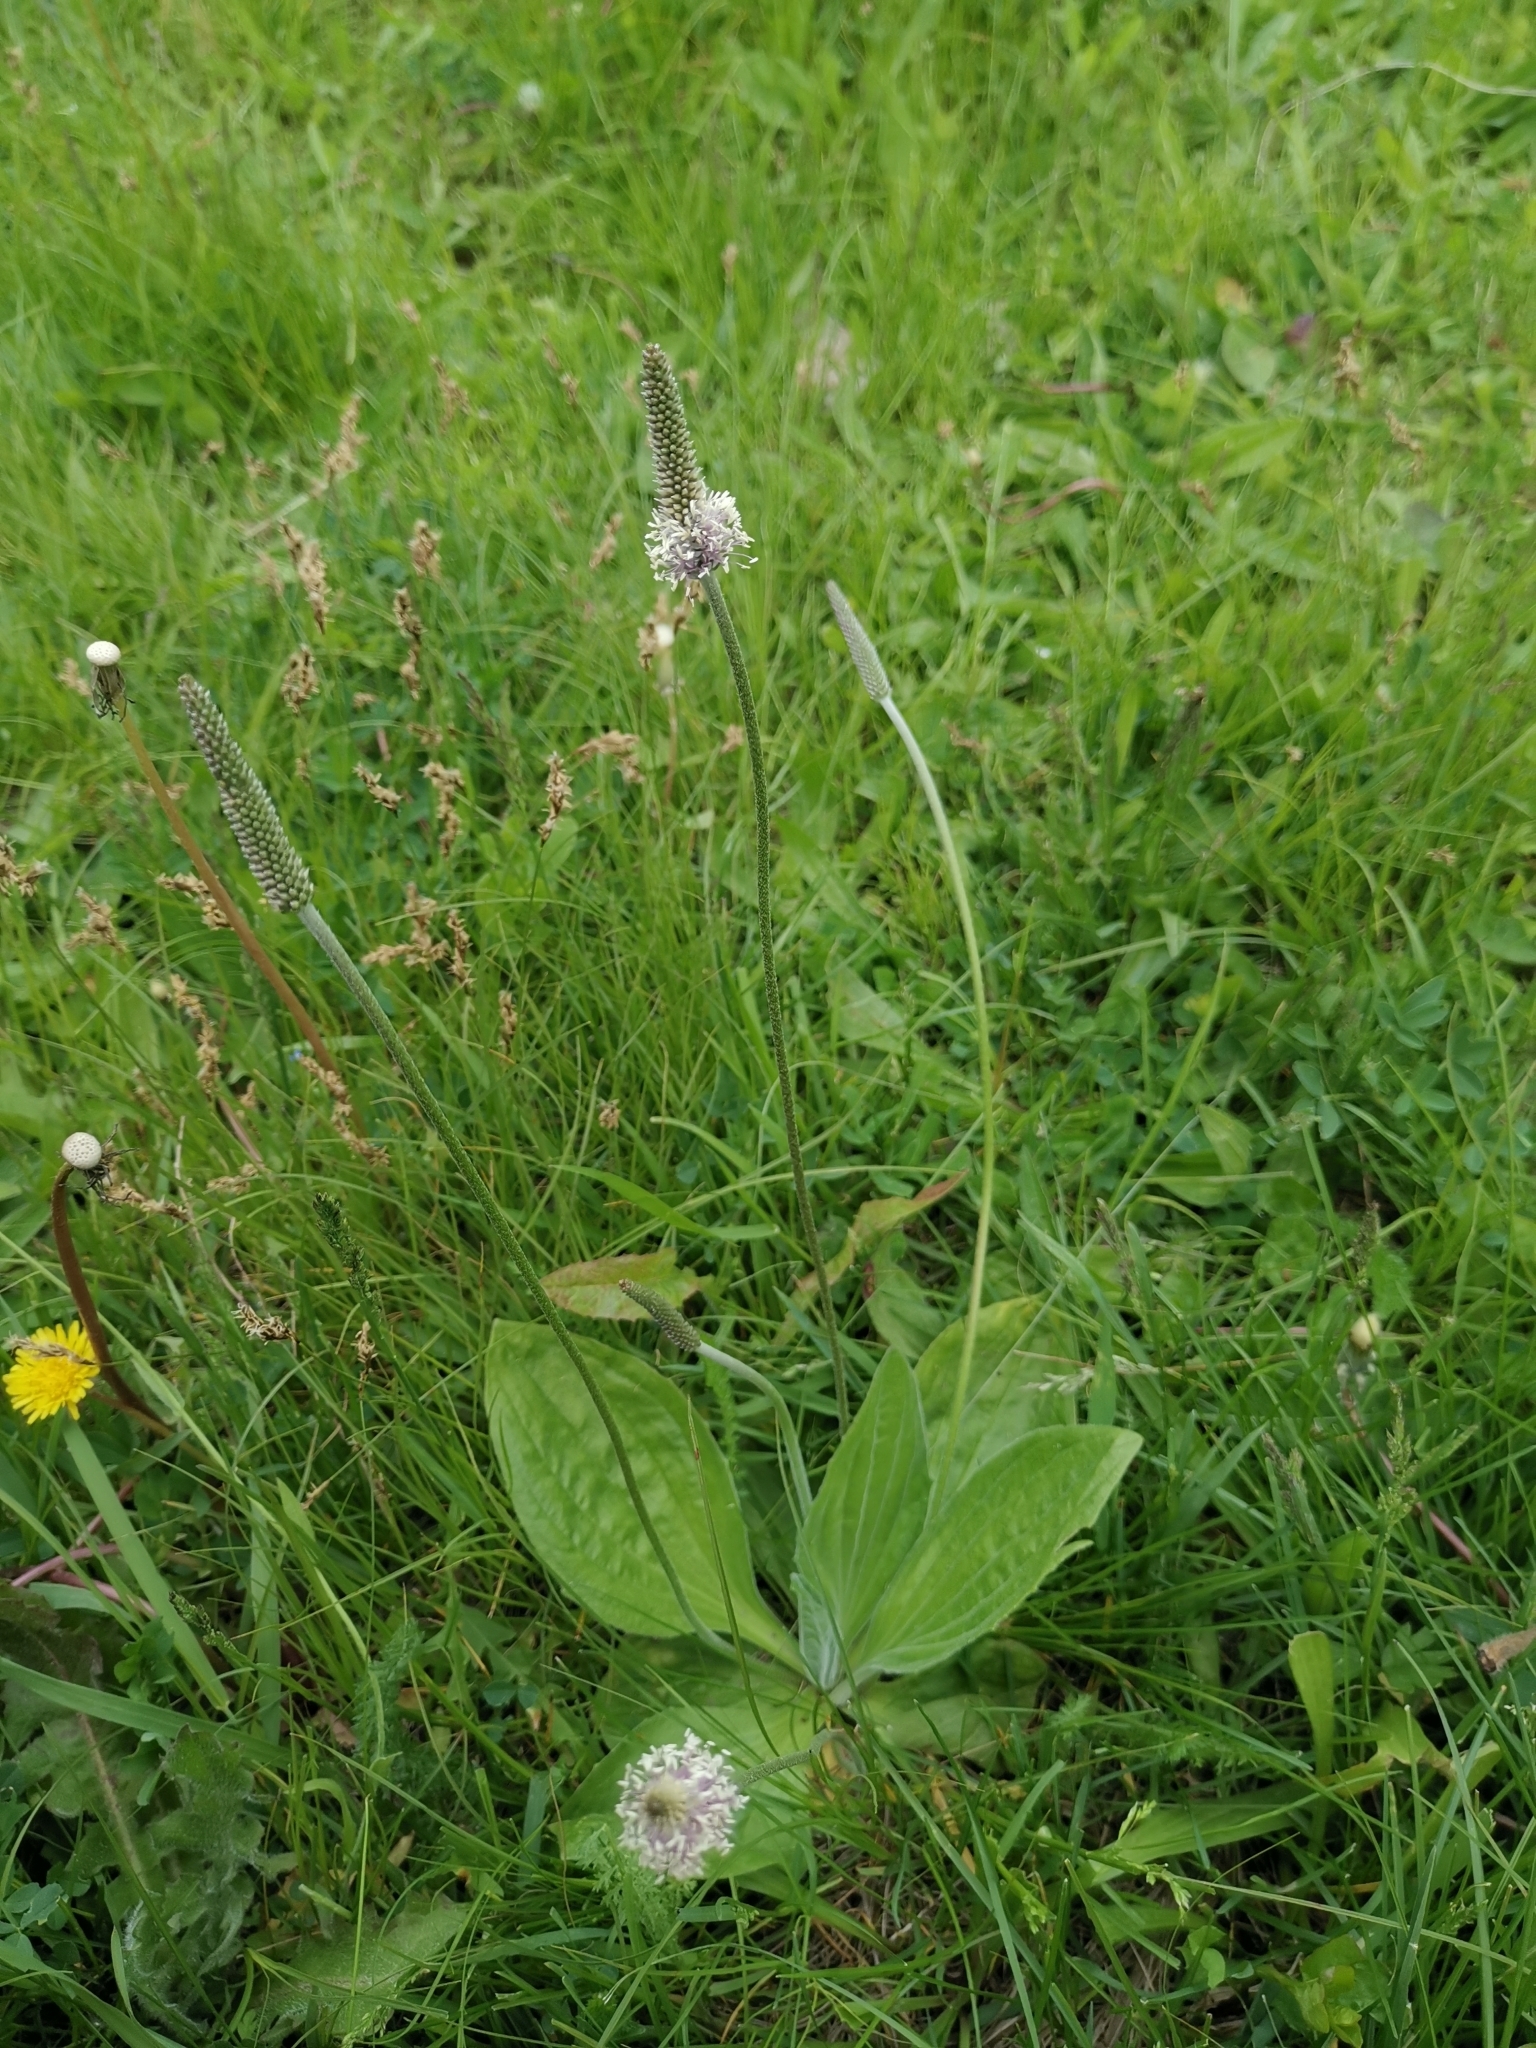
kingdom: Plantae
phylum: Tracheophyta
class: Magnoliopsida
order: Lamiales
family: Plantaginaceae
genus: Plantago
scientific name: Plantago media
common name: Hoary plantain
